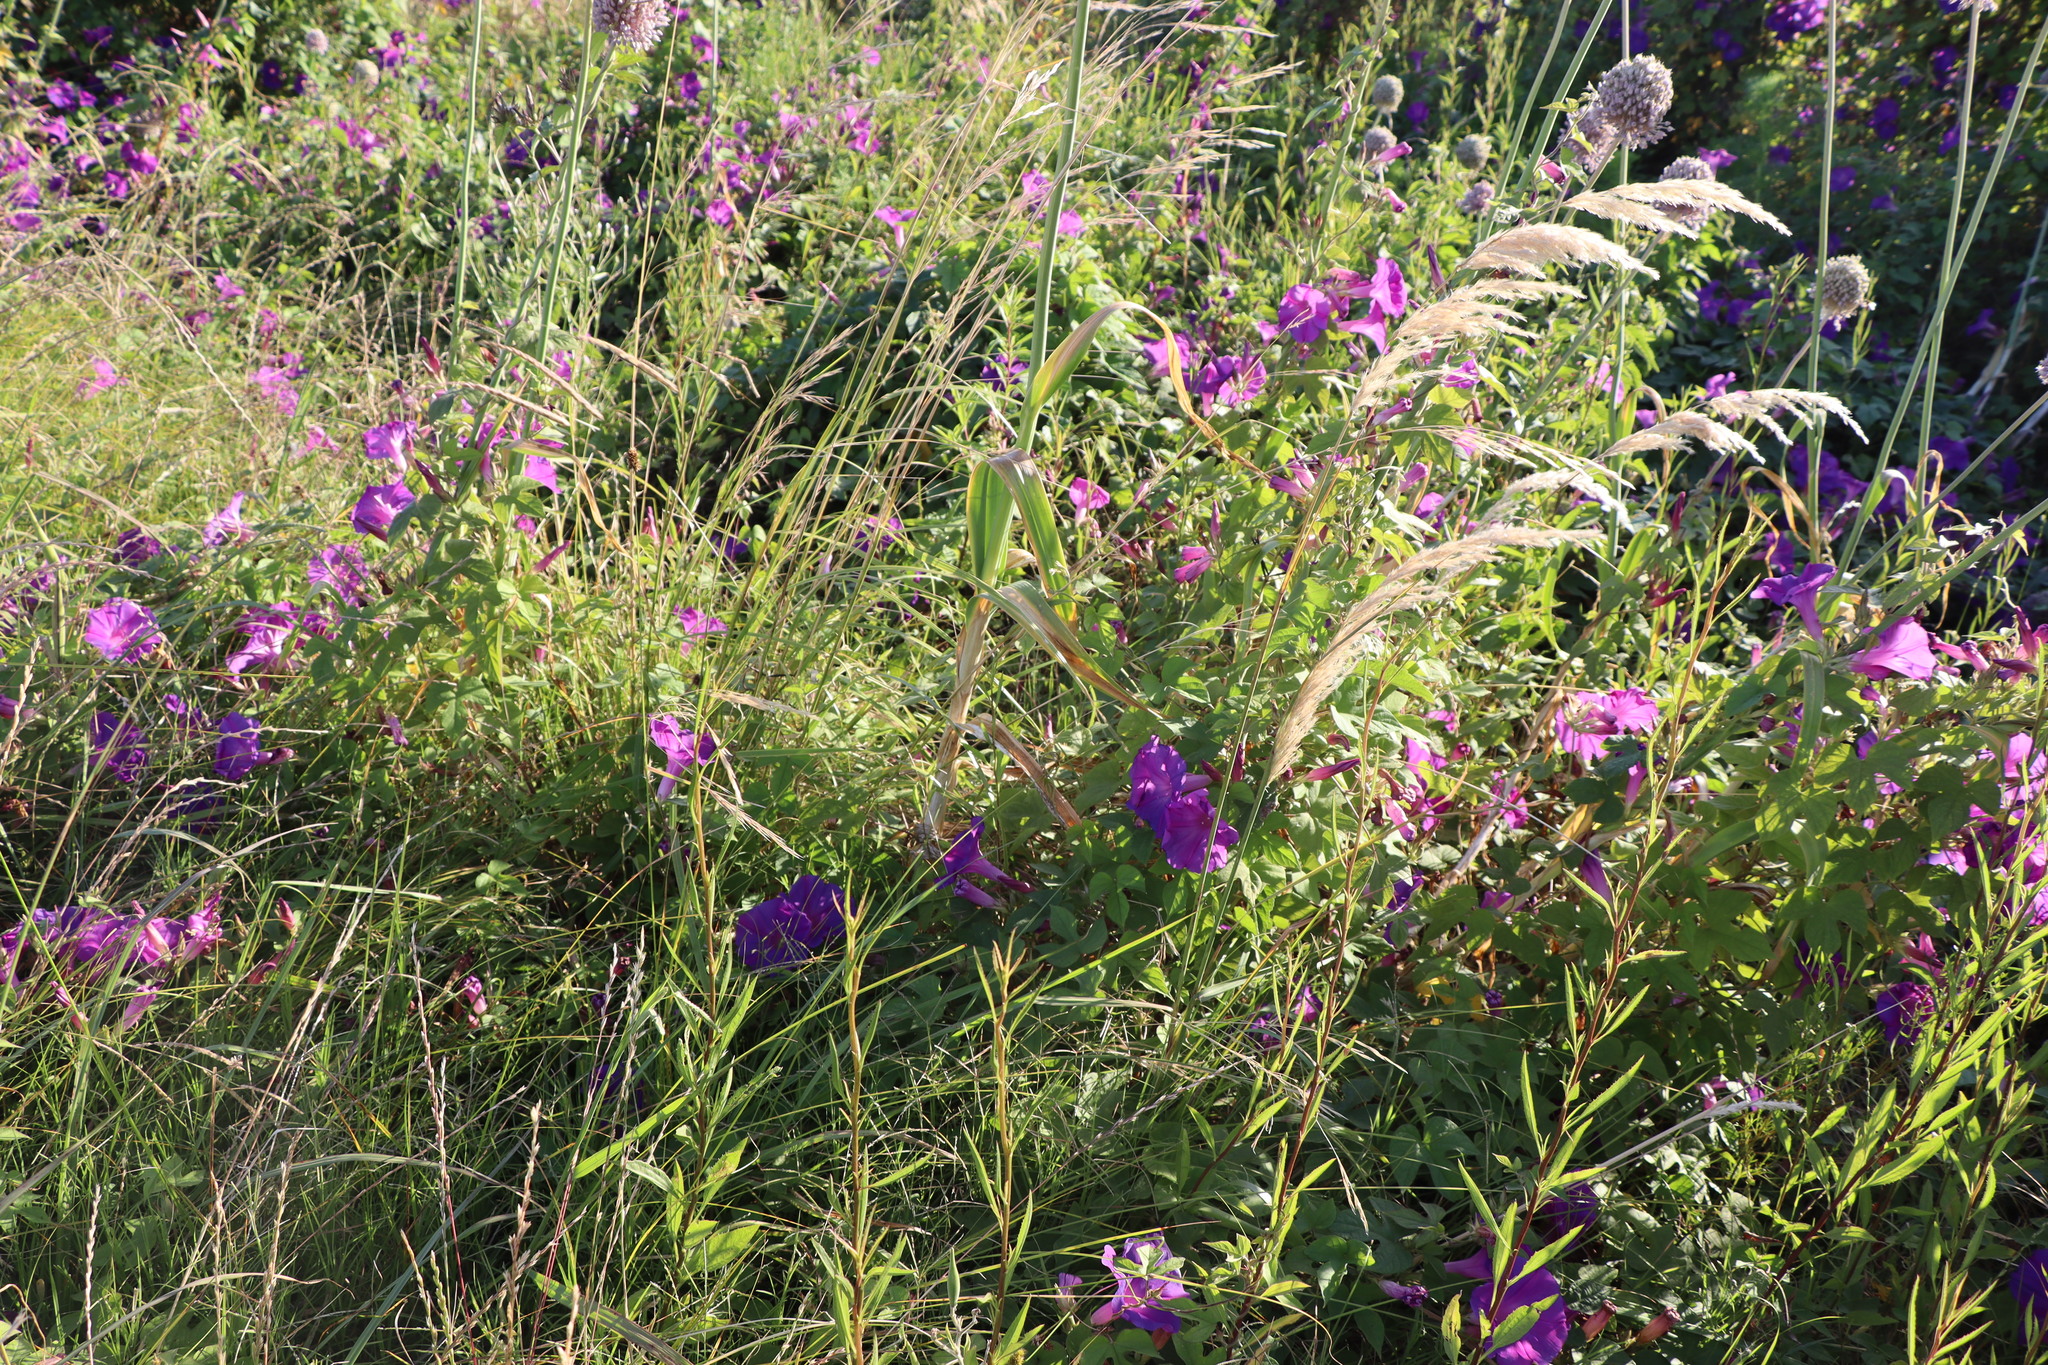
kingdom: Plantae
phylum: Tracheophyta
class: Magnoliopsida
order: Solanales
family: Convolvulaceae
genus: Ipomoea
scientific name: Ipomoea indica
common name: Blue dawnflower
